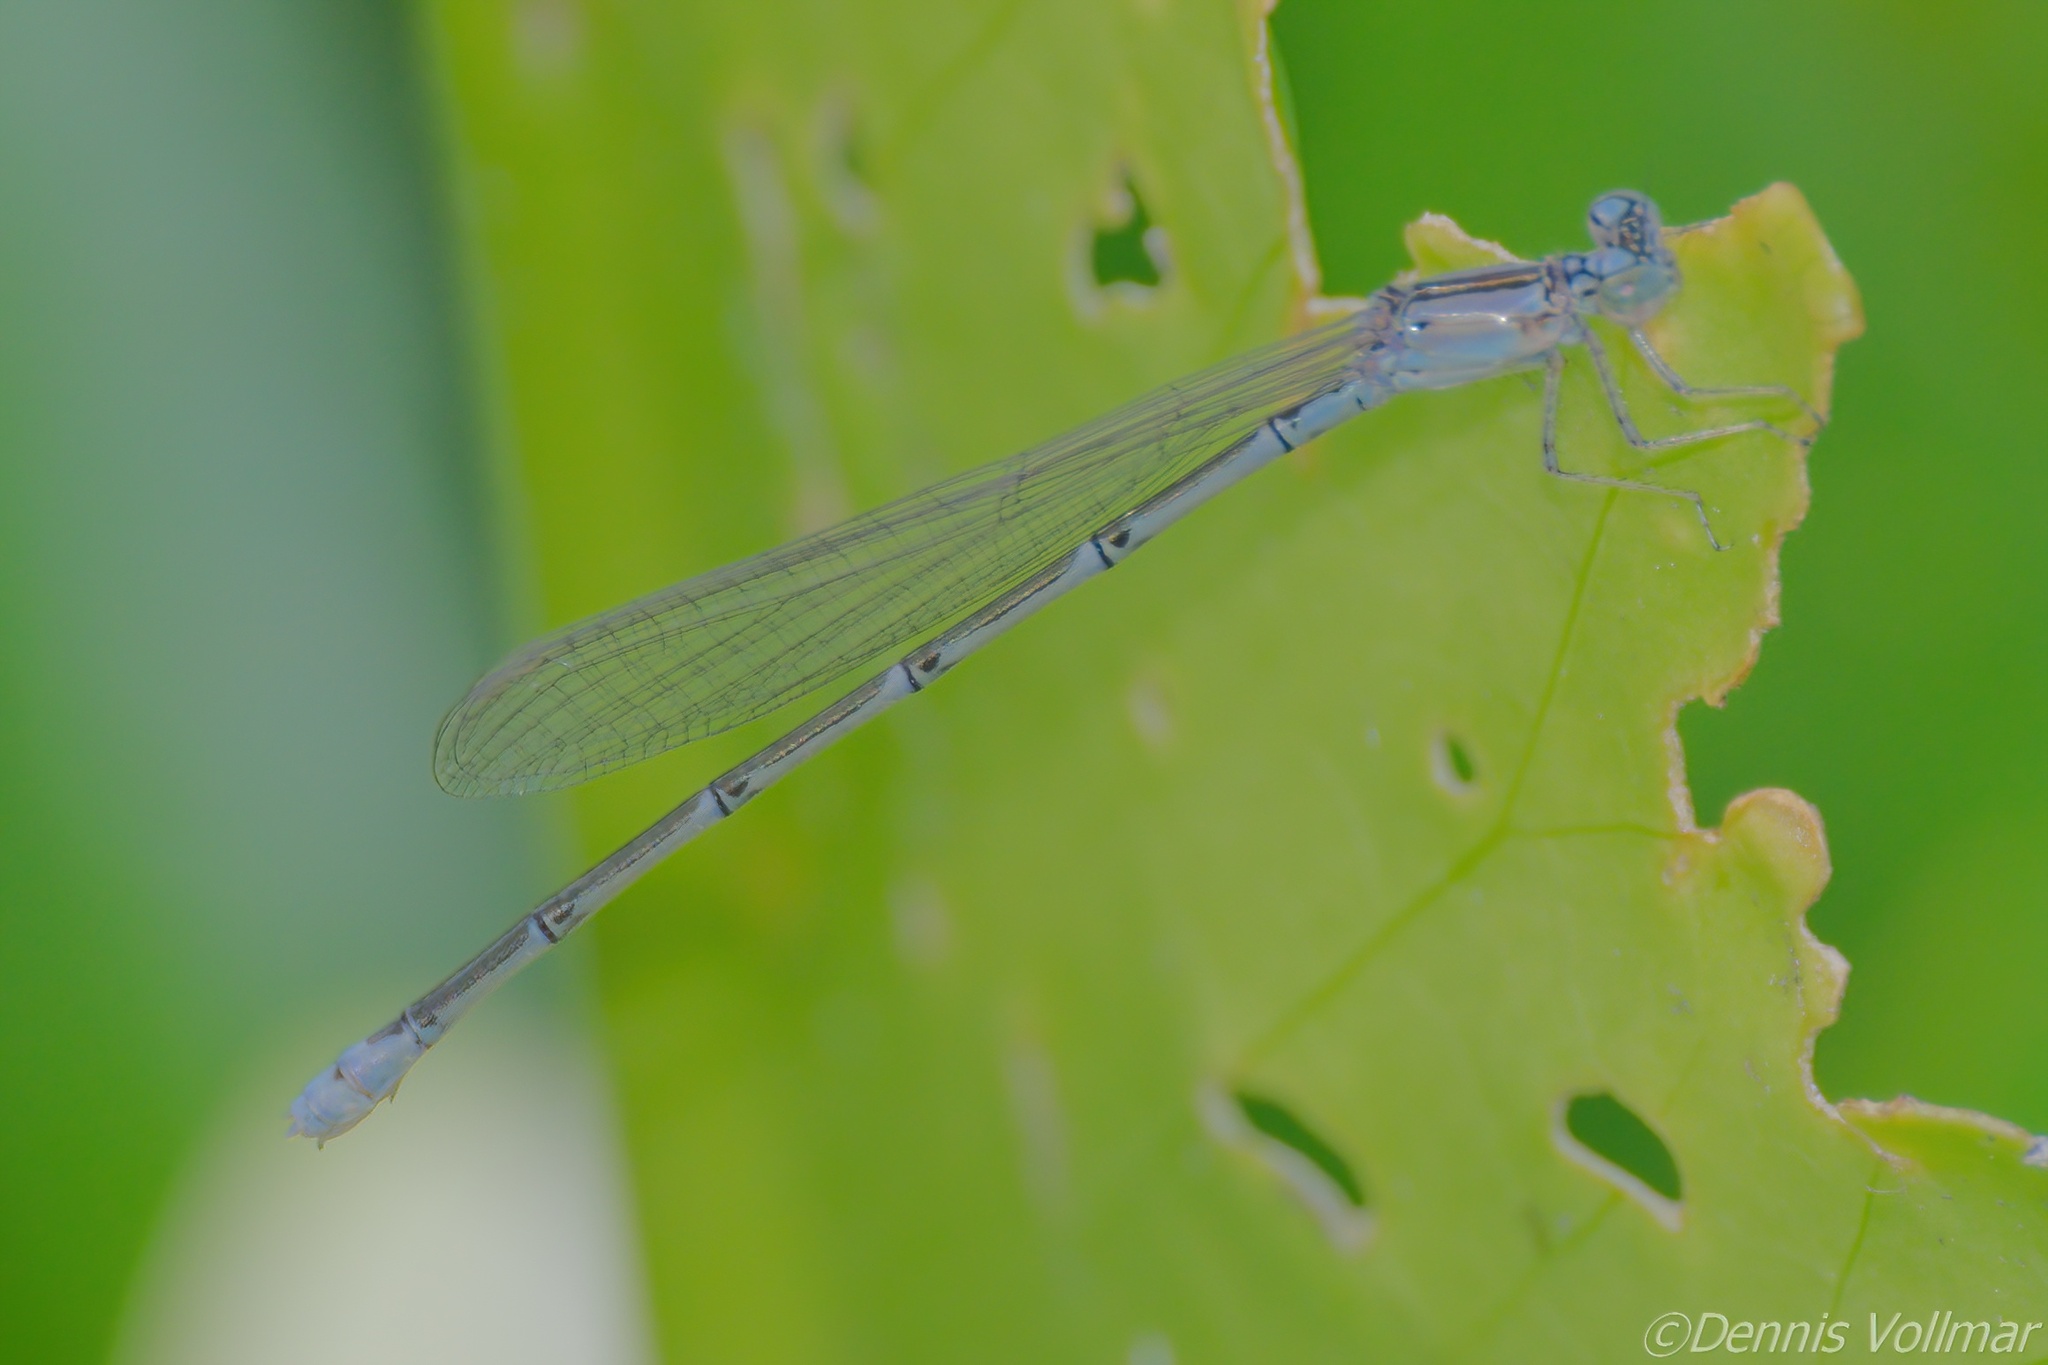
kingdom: Animalia
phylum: Arthropoda
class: Insecta
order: Odonata
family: Coenagrionidae
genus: Enallagma
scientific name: Enallagma traviatum
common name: Slender bluet
